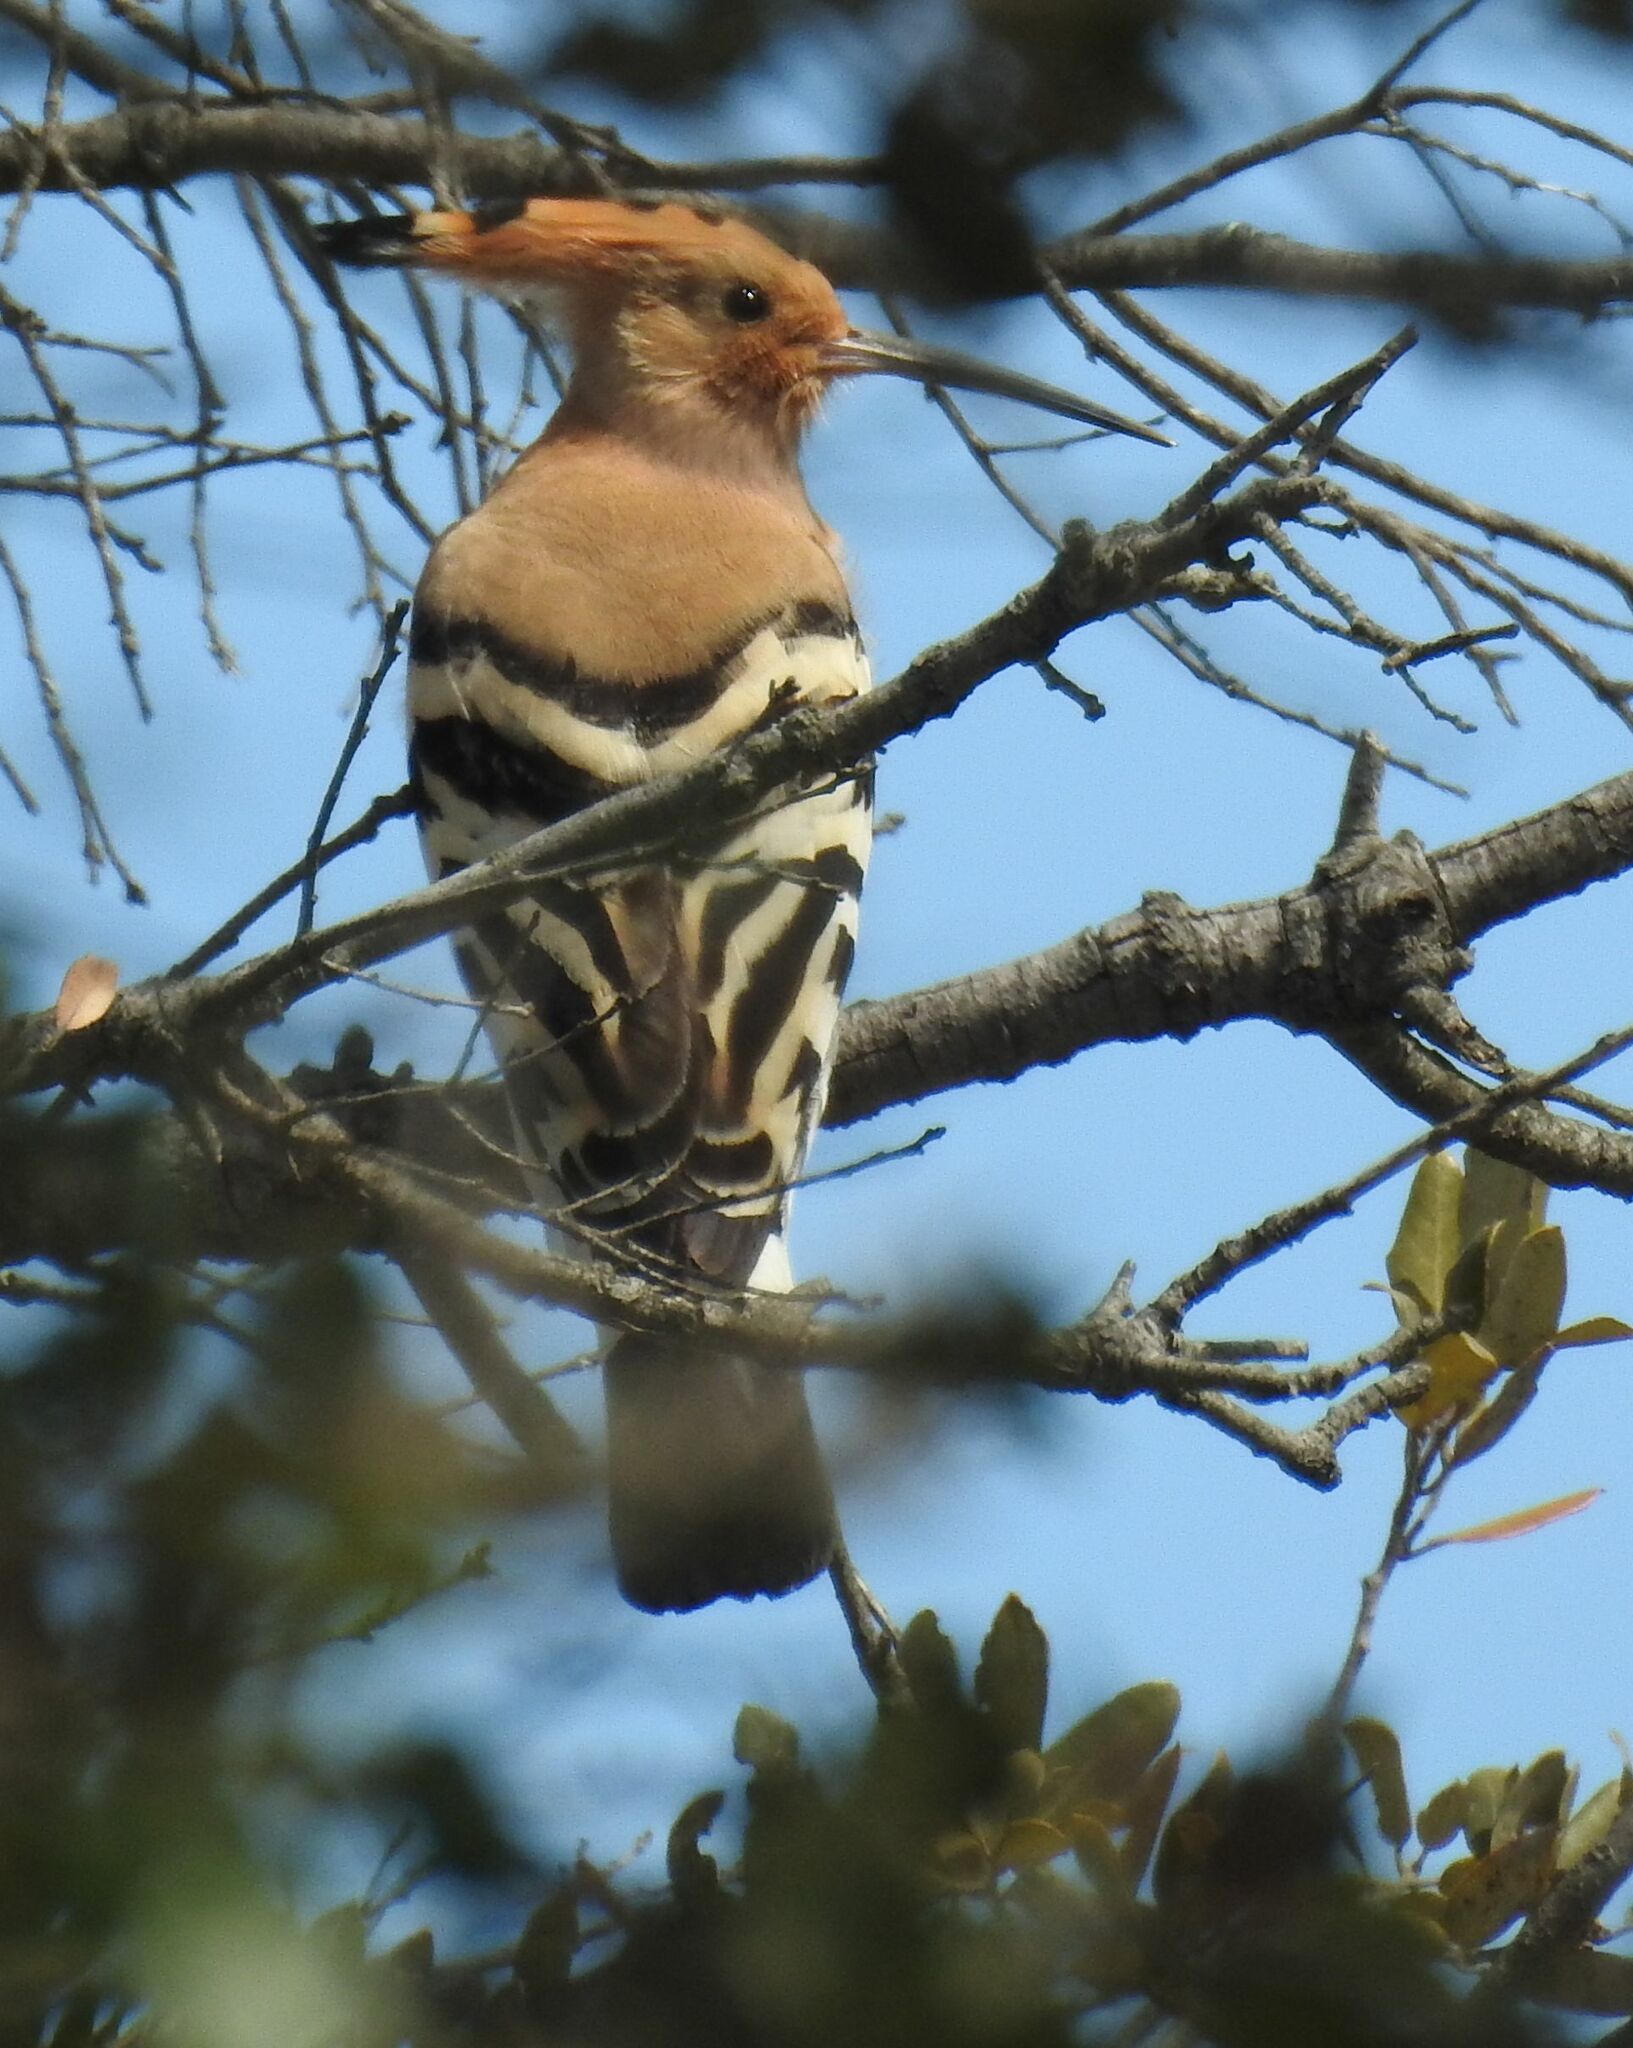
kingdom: Animalia
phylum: Chordata
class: Aves
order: Bucerotiformes
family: Upupidae
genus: Upupa
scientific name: Upupa epops
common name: Eurasian hoopoe
